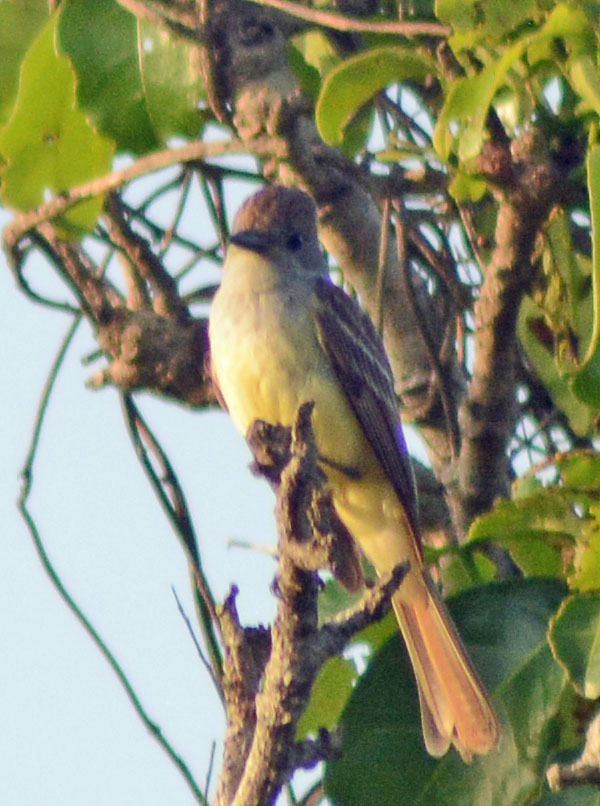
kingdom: Animalia
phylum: Chordata
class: Aves
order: Passeriformes
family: Tyrannidae
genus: Myiarchus
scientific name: Myiarchus tyrannulus
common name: Brown-crested flycatcher
